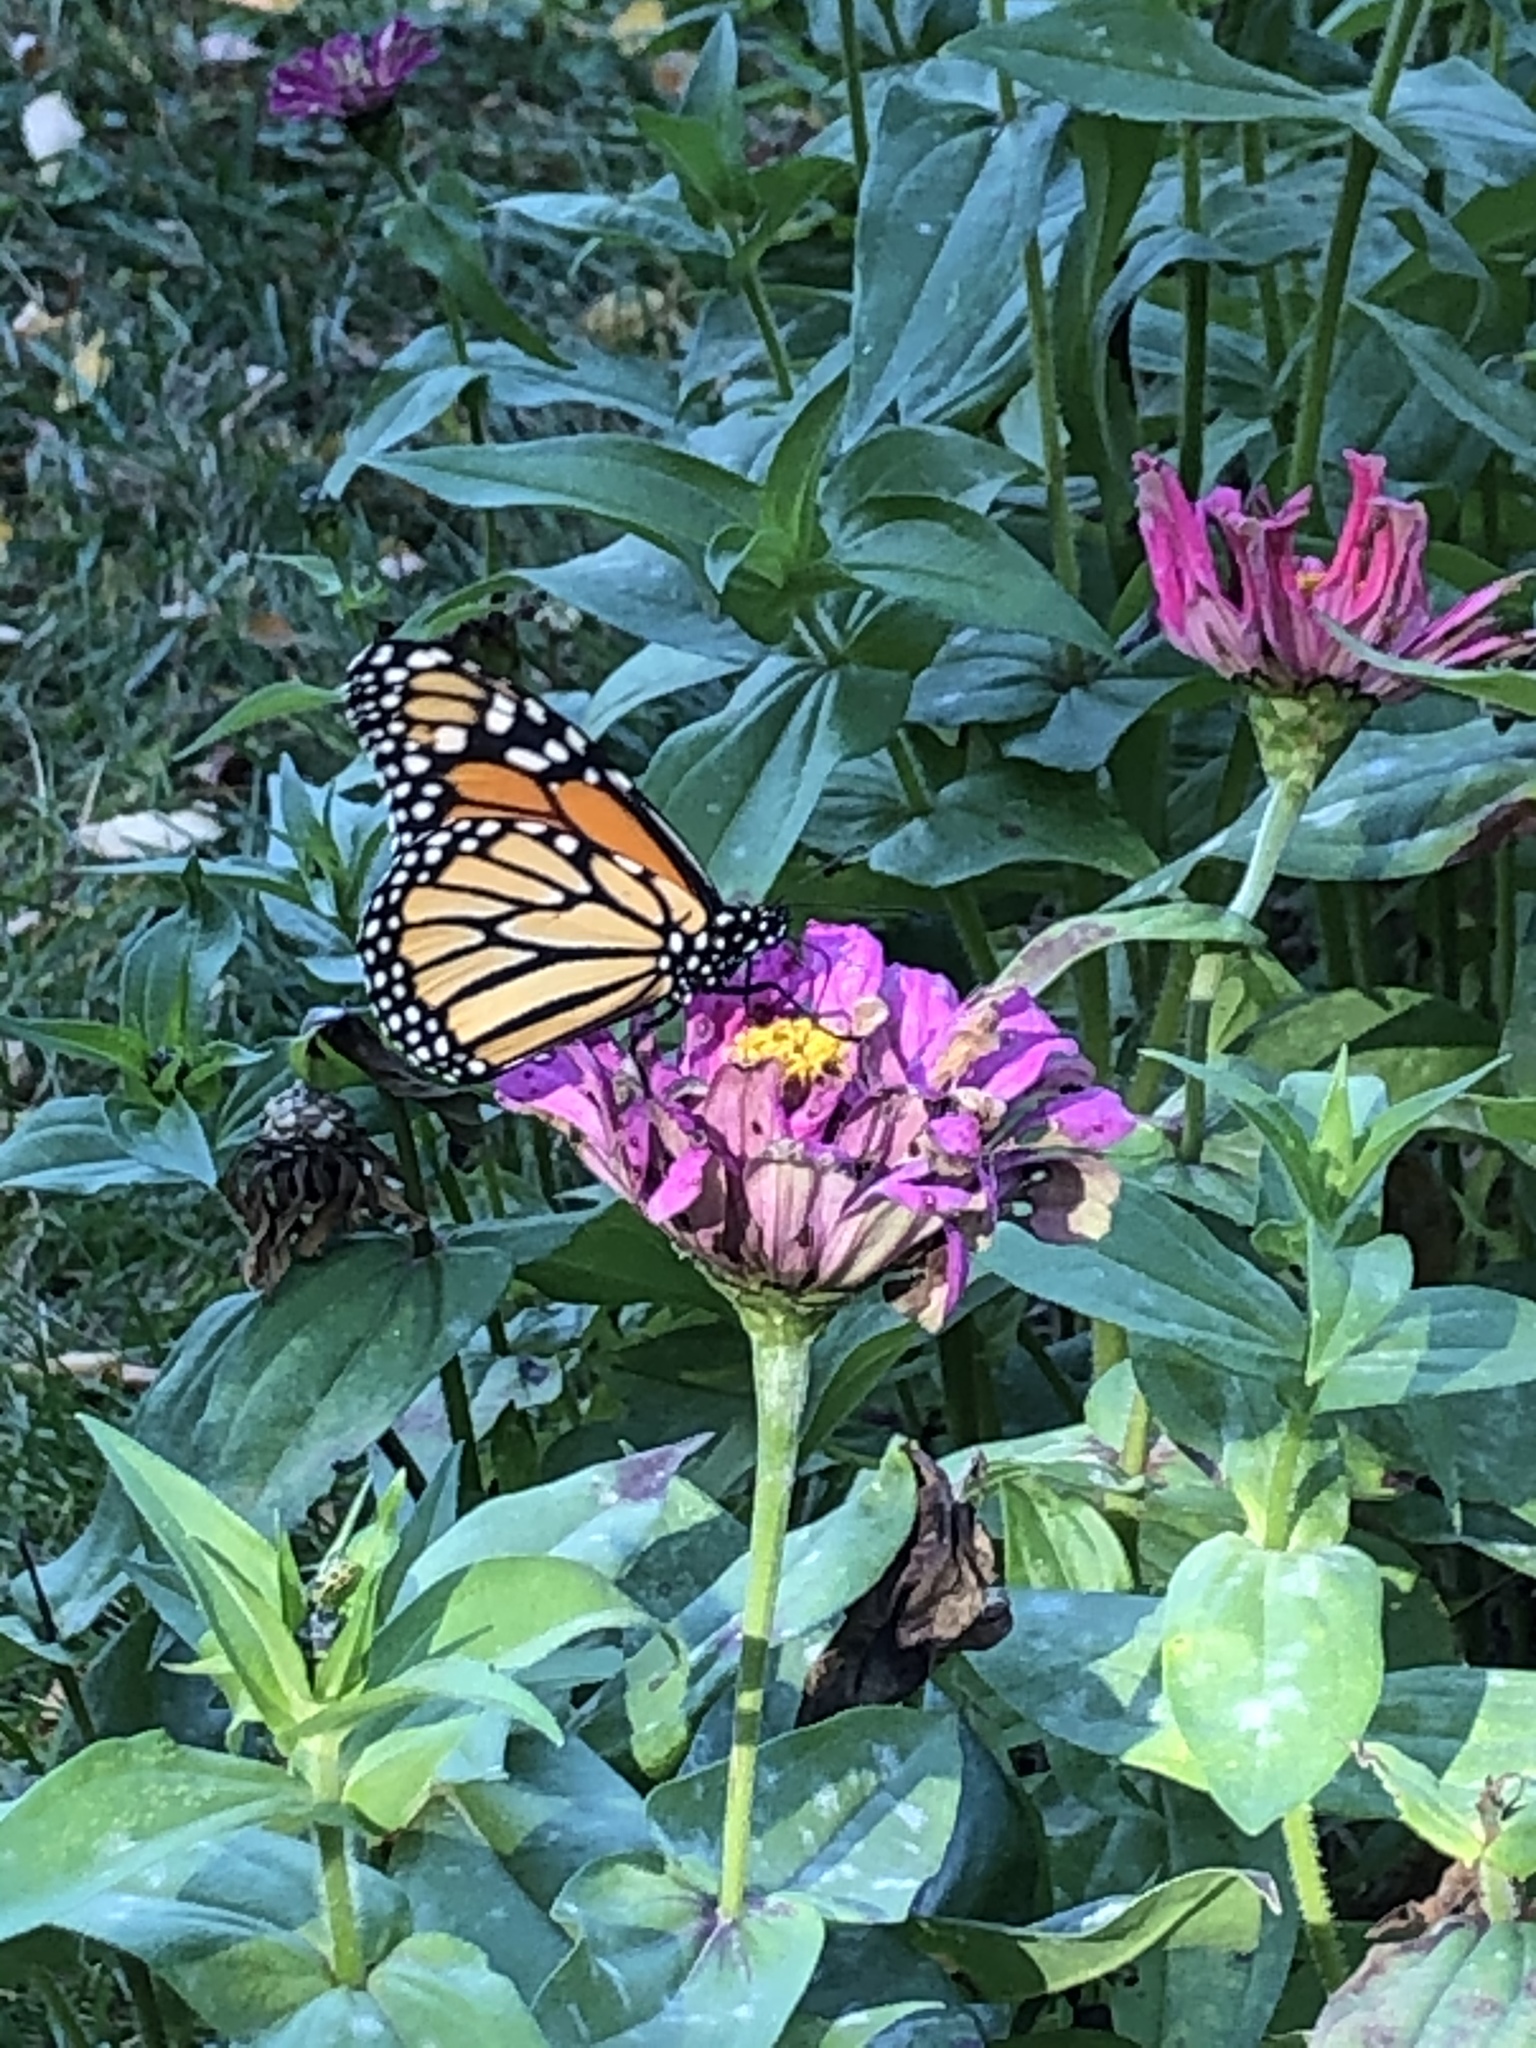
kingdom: Animalia
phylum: Arthropoda
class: Insecta
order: Lepidoptera
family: Nymphalidae
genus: Danaus
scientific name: Danaus plexippus
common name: Monarch
